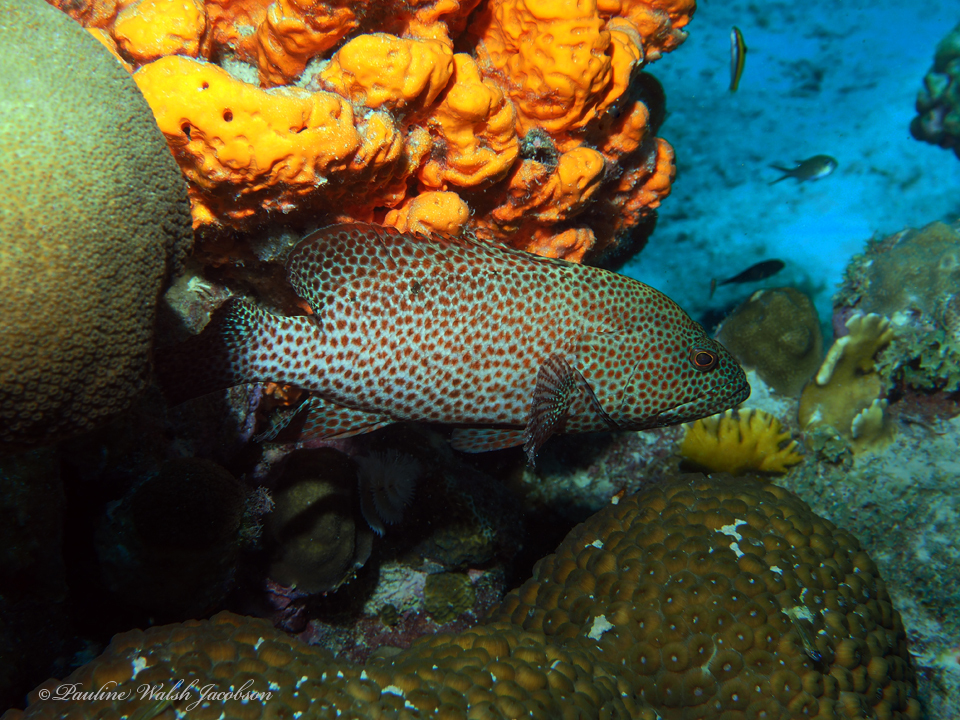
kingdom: Animalia
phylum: Chordata
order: Perciformes
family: Serranidae
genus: Cephalopholis
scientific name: Cephalopholis cruentata
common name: Graysby
